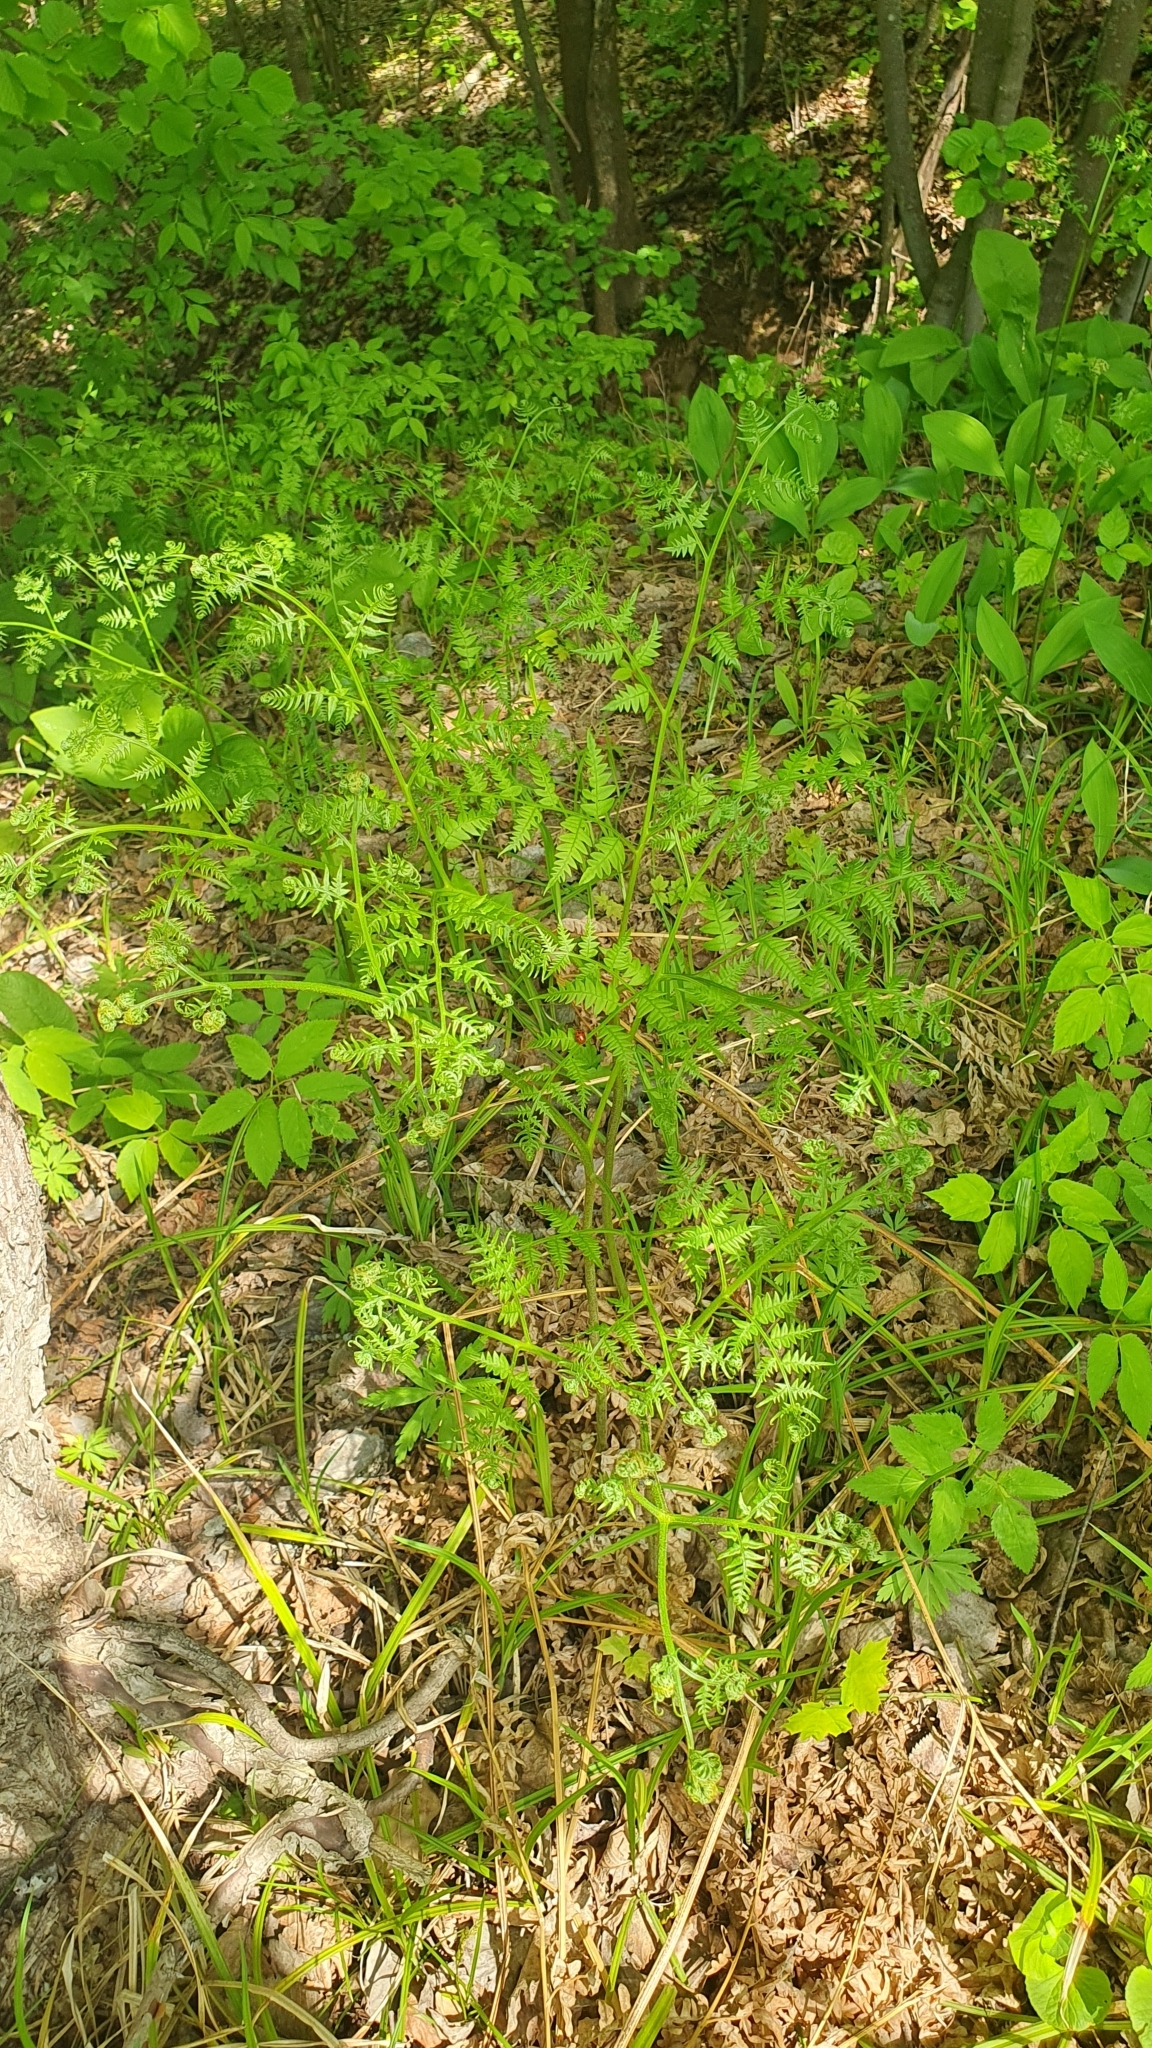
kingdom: Plantae
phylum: Tracheophyta
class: Polypodiopsida
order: Polypodiales
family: Dennstaedtiaceae
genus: Pteridium
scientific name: Pteridium aquilinum
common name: Bracken
